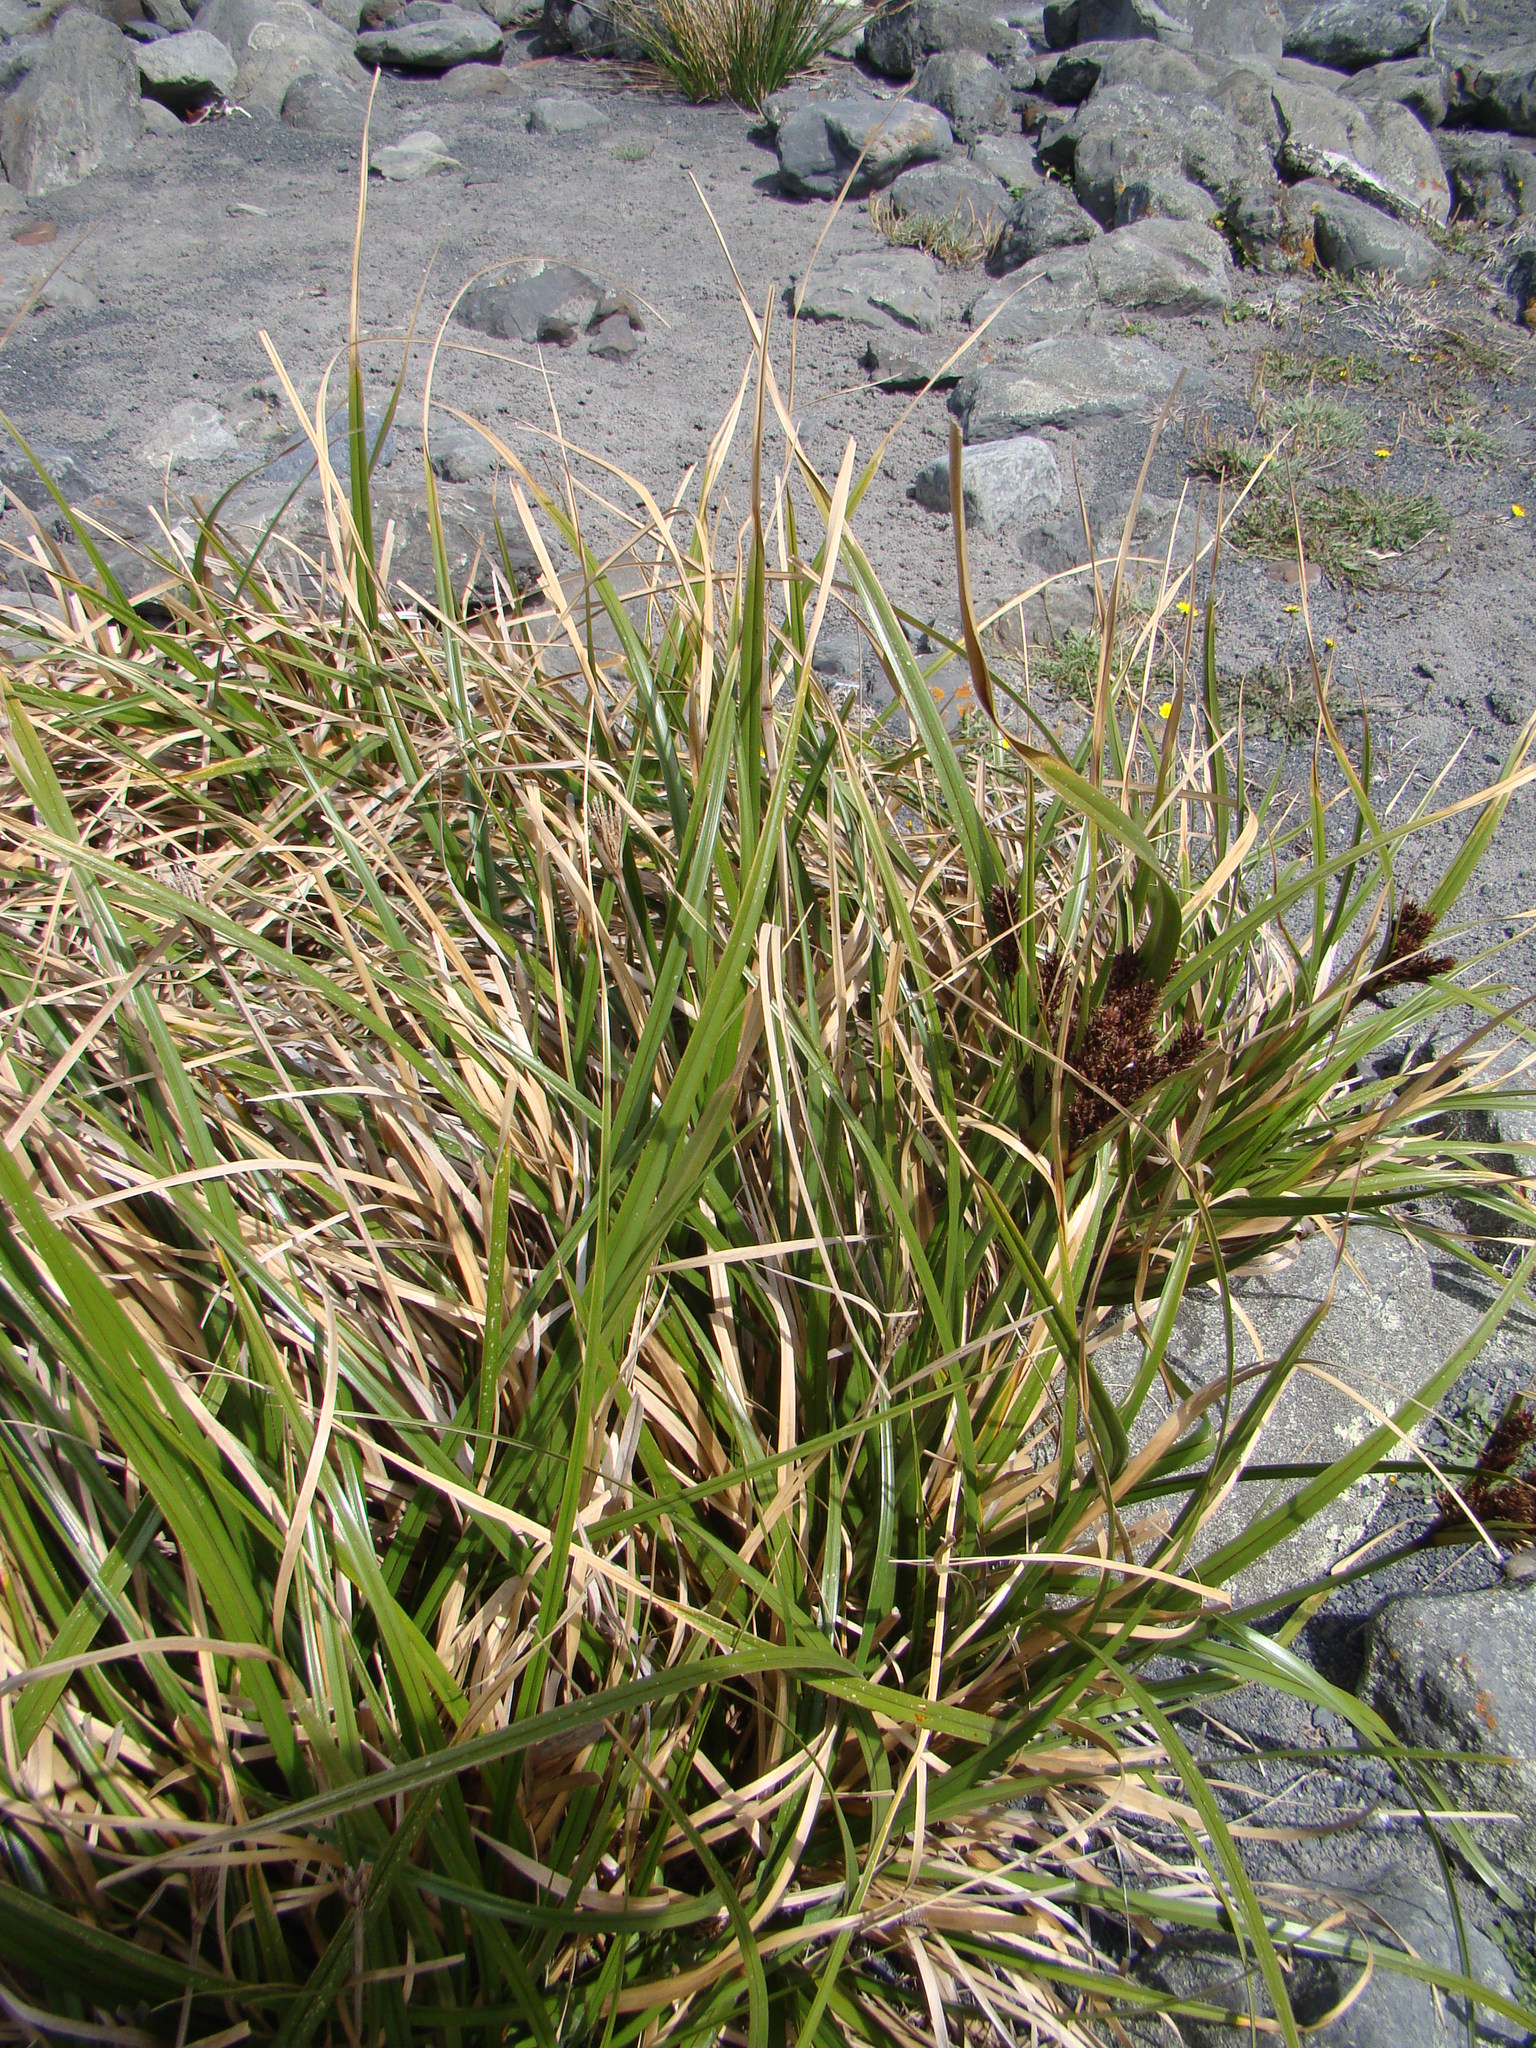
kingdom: Plantae
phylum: Tracheophyta
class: Liliopsida
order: Poales
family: Cyperaceae
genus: Cyperus
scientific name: Cyperus ustulatus
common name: Giant umbrella-sedge
